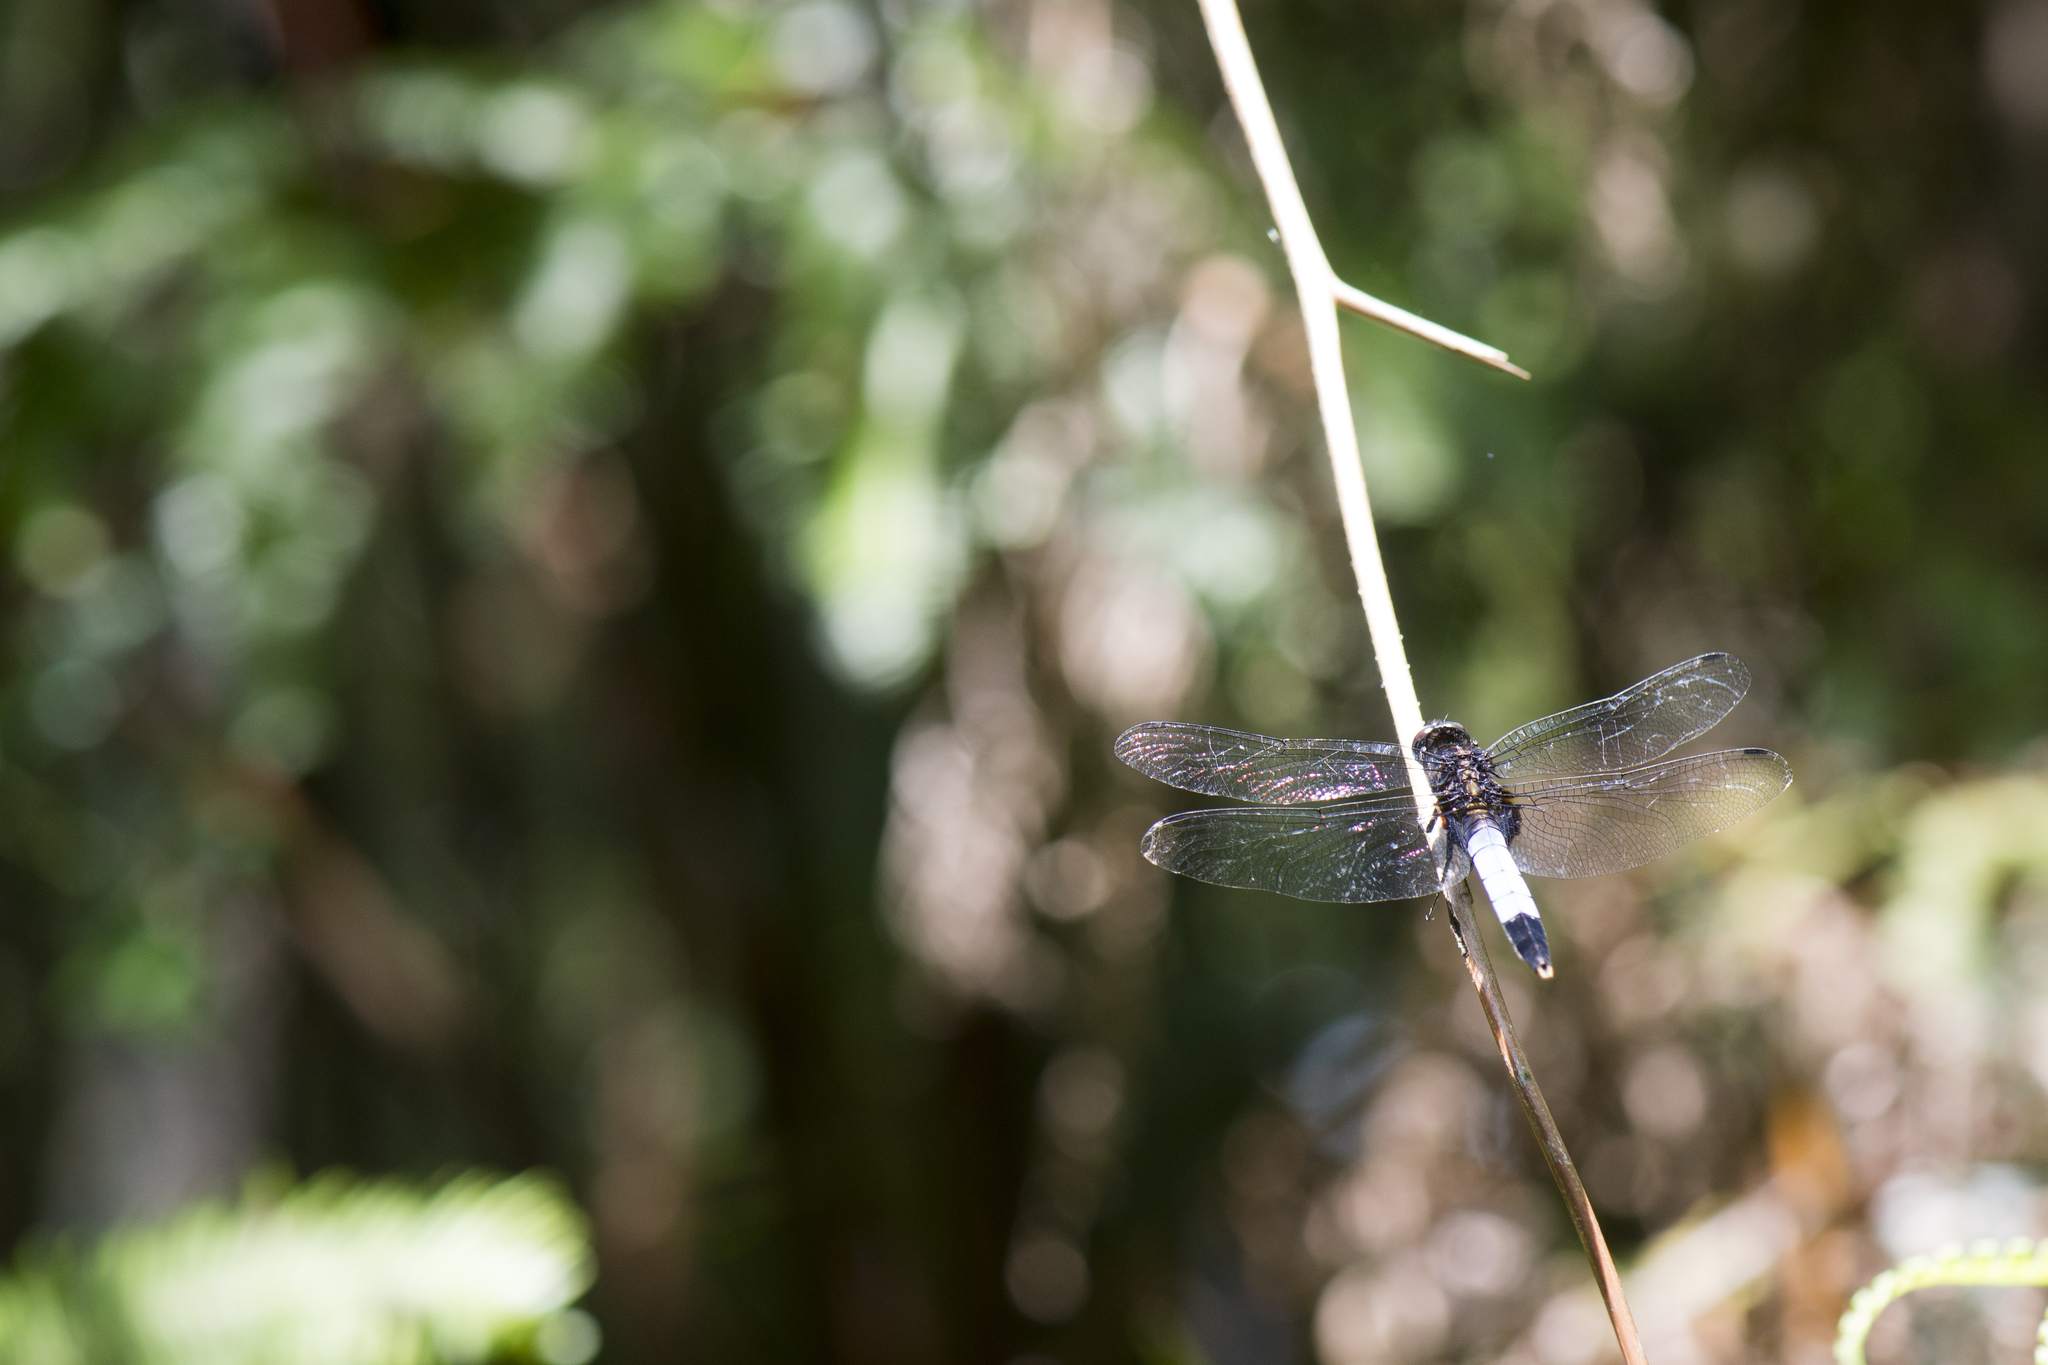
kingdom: Animalia
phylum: Arthropoda
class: Insecta
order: Odonata
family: Libellulidae
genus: Orthetrum
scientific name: Orthetrum triangulare
